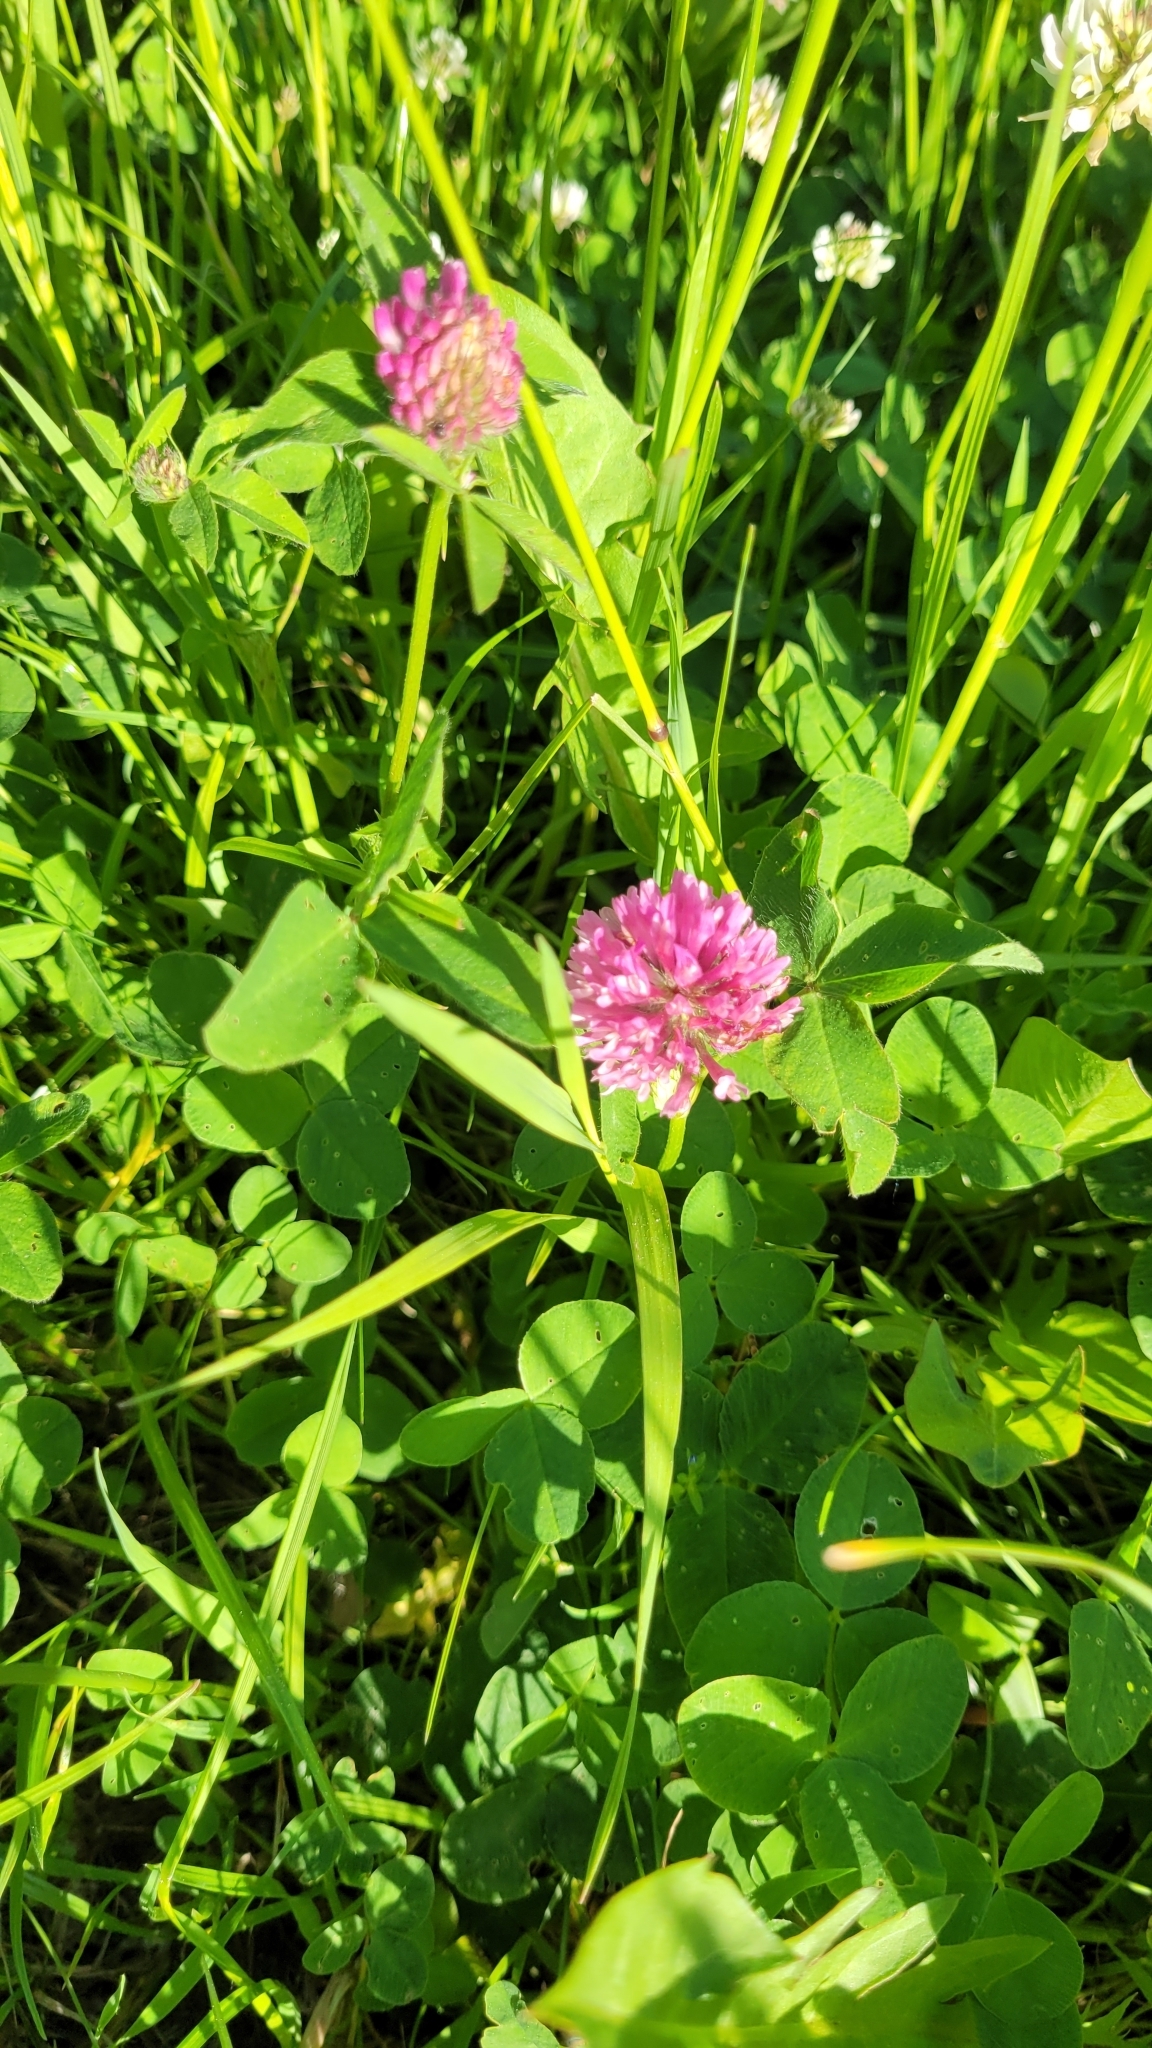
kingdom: Plantae
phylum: Tracheophyta
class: Magnoliopsida
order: Fabales
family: Fabaceae
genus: Trifolium
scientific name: Trifolium pratense
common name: Red clover
